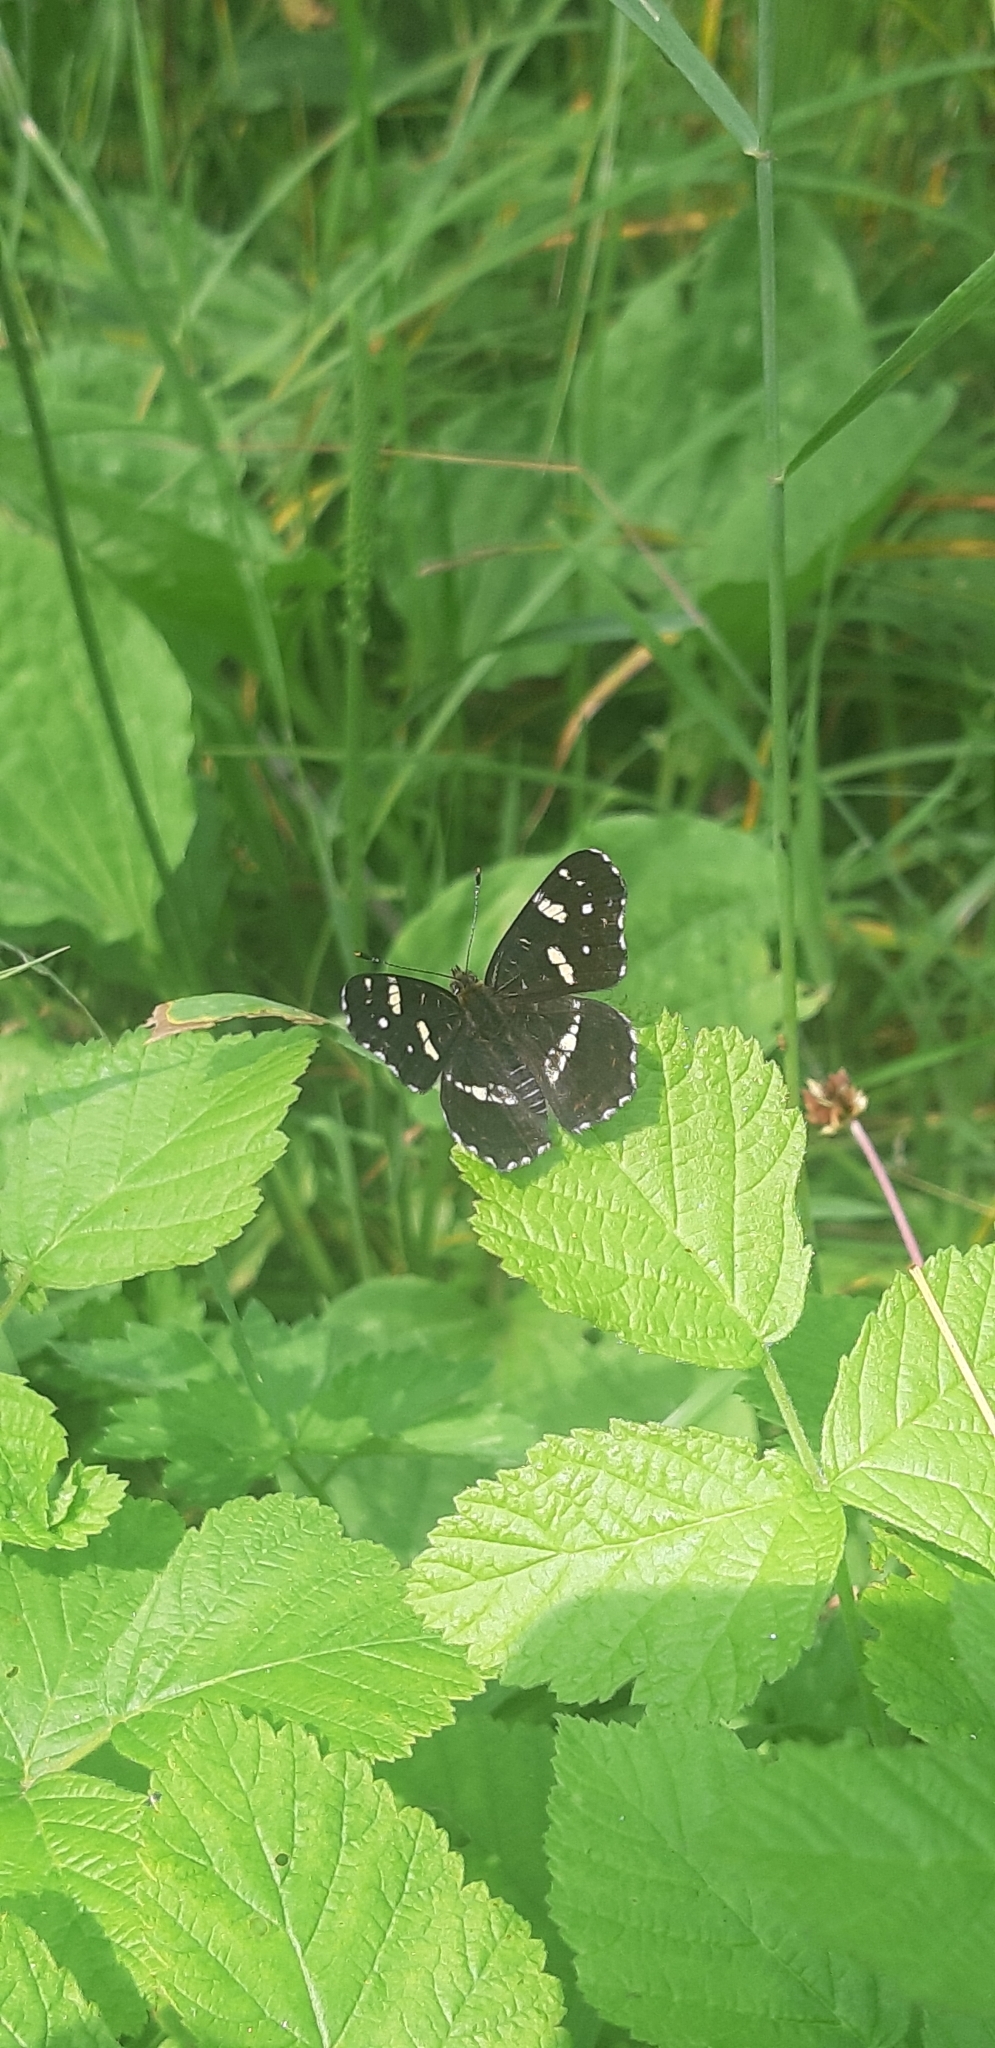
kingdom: Animalia
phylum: Arthropoda
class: Insecta
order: Lepidoptera
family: Nymphalidae
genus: Araschnia
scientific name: Araschnia levana
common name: Map butterfly
